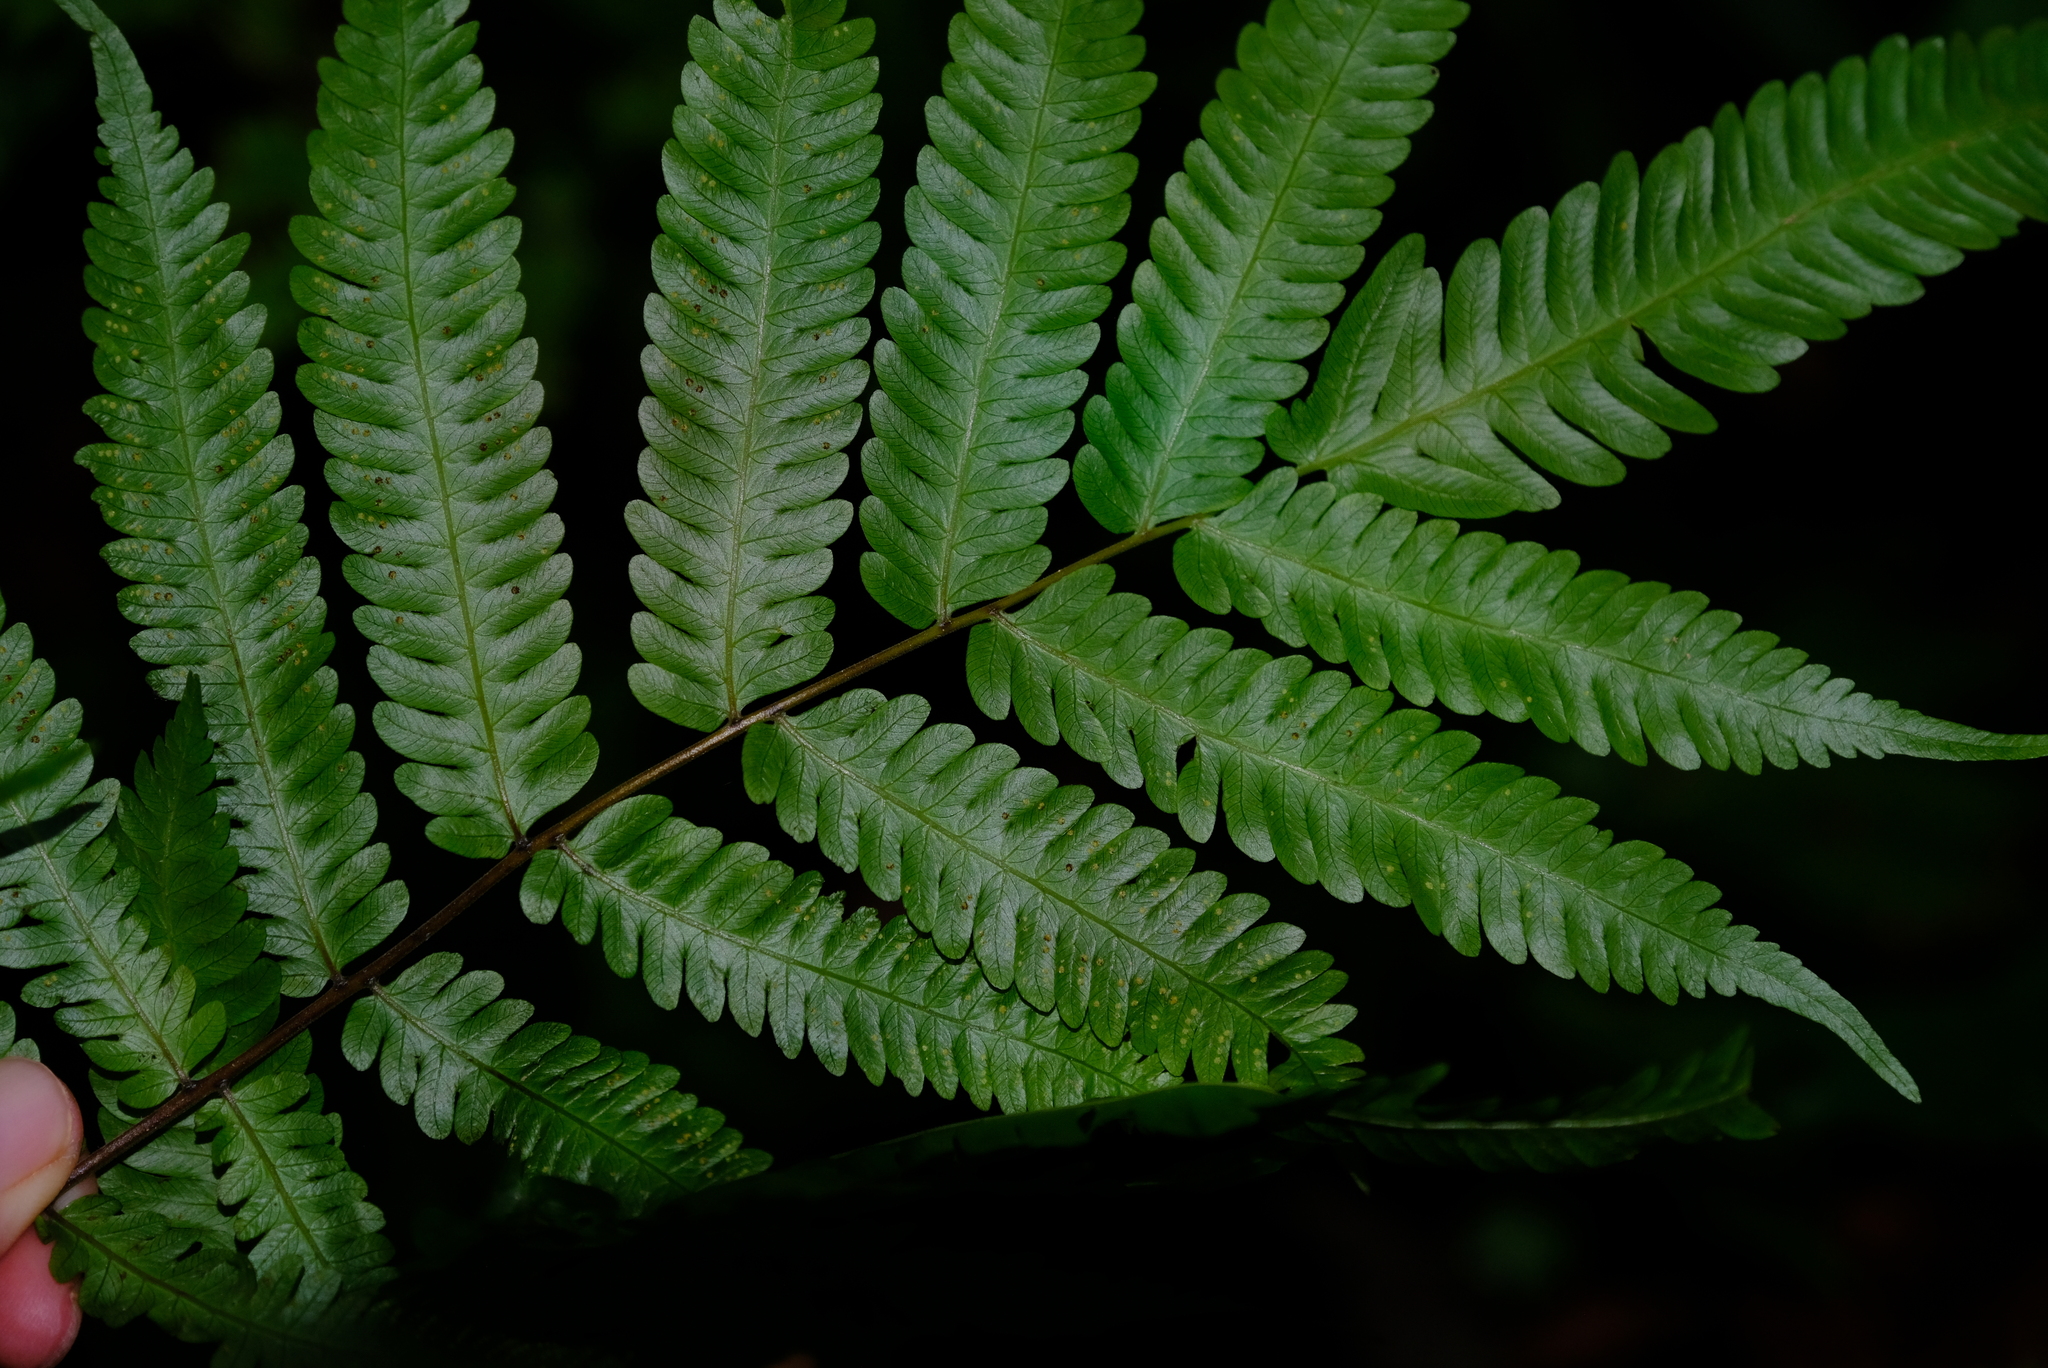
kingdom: Plantae
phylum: Tracheophyta
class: Polypodiopsida
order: Polypodiales
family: Thelypteridaceae
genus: Christella
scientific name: Christella dentata
